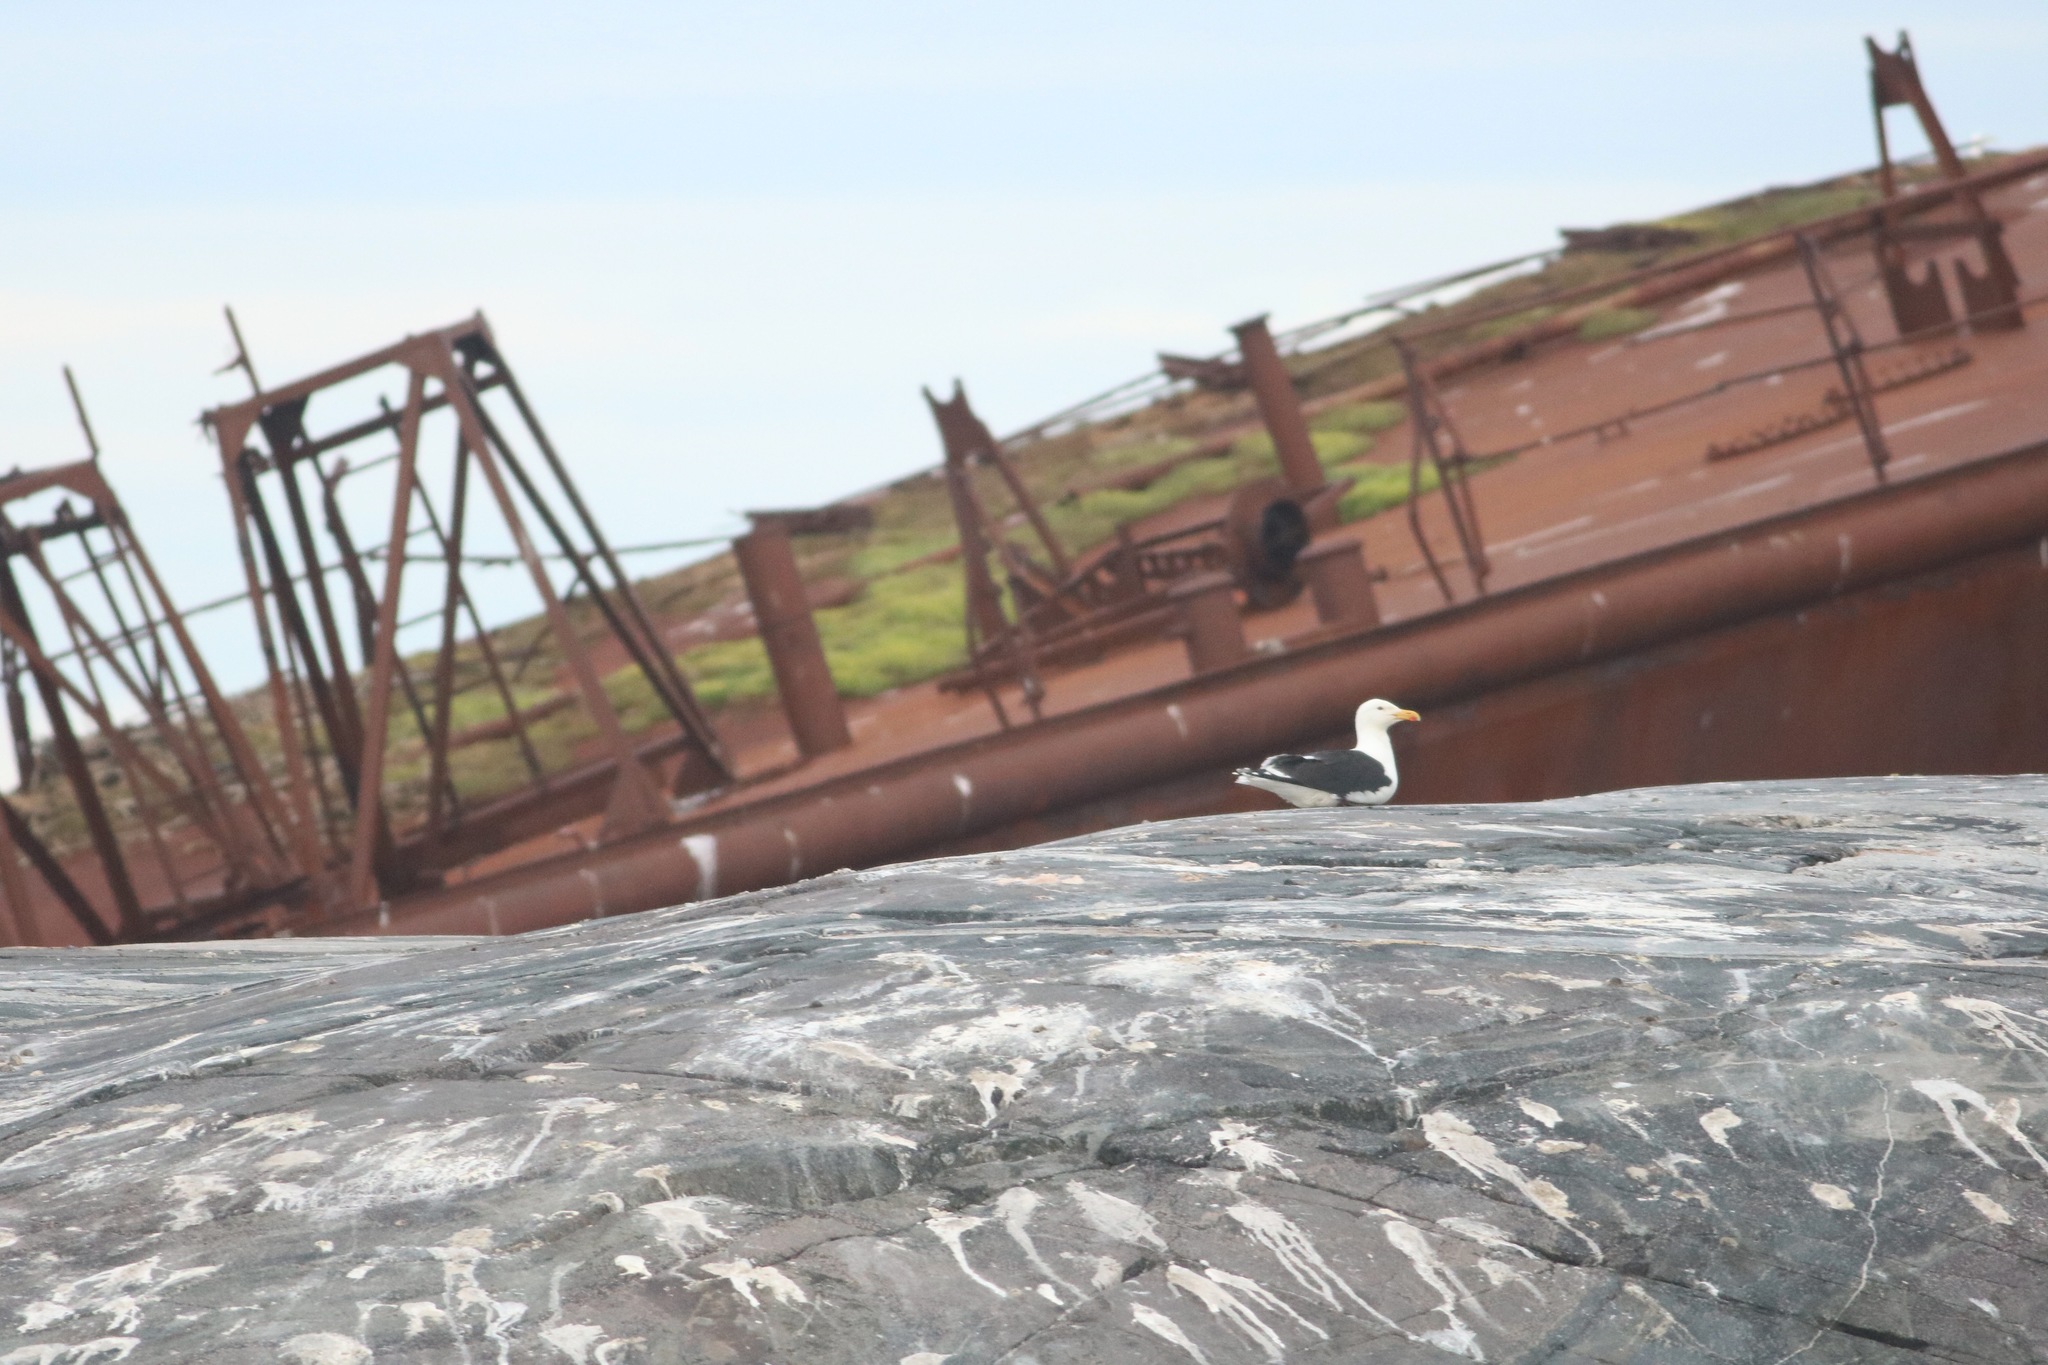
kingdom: Animalia
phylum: Chordata
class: Aves
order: Charadriiformes
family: Laridae
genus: Larus
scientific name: Larus marinus
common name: Great black-backed gull
